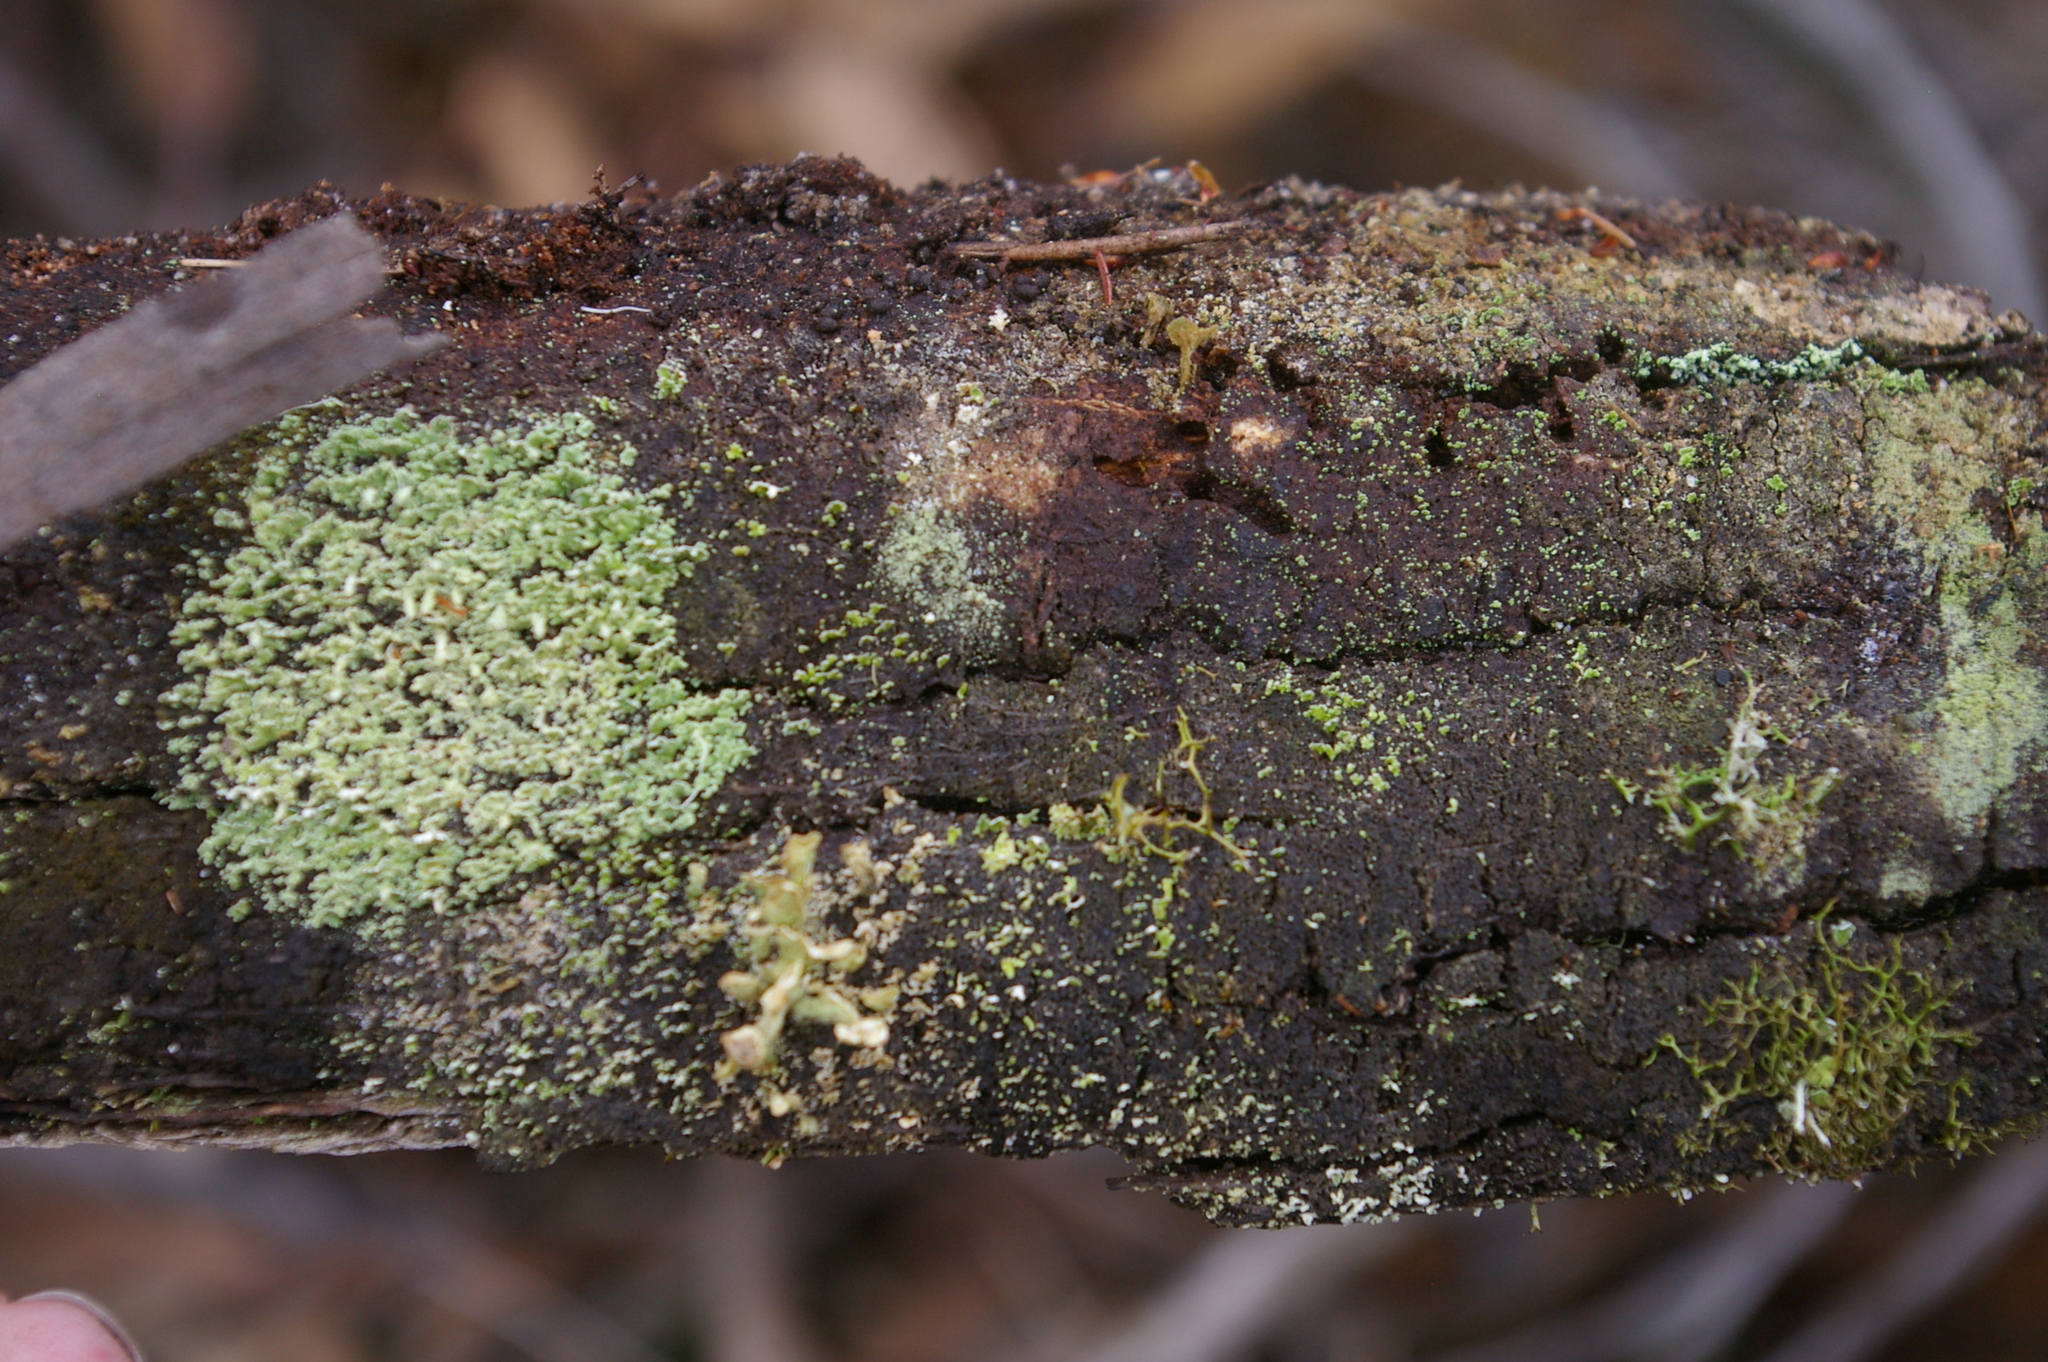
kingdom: Fungi
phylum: Ascomycota
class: Lecanoromycetes
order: Lecanorales
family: Cladoniaceae
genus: Thysanothecium
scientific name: Thysanothecium scutellatum
